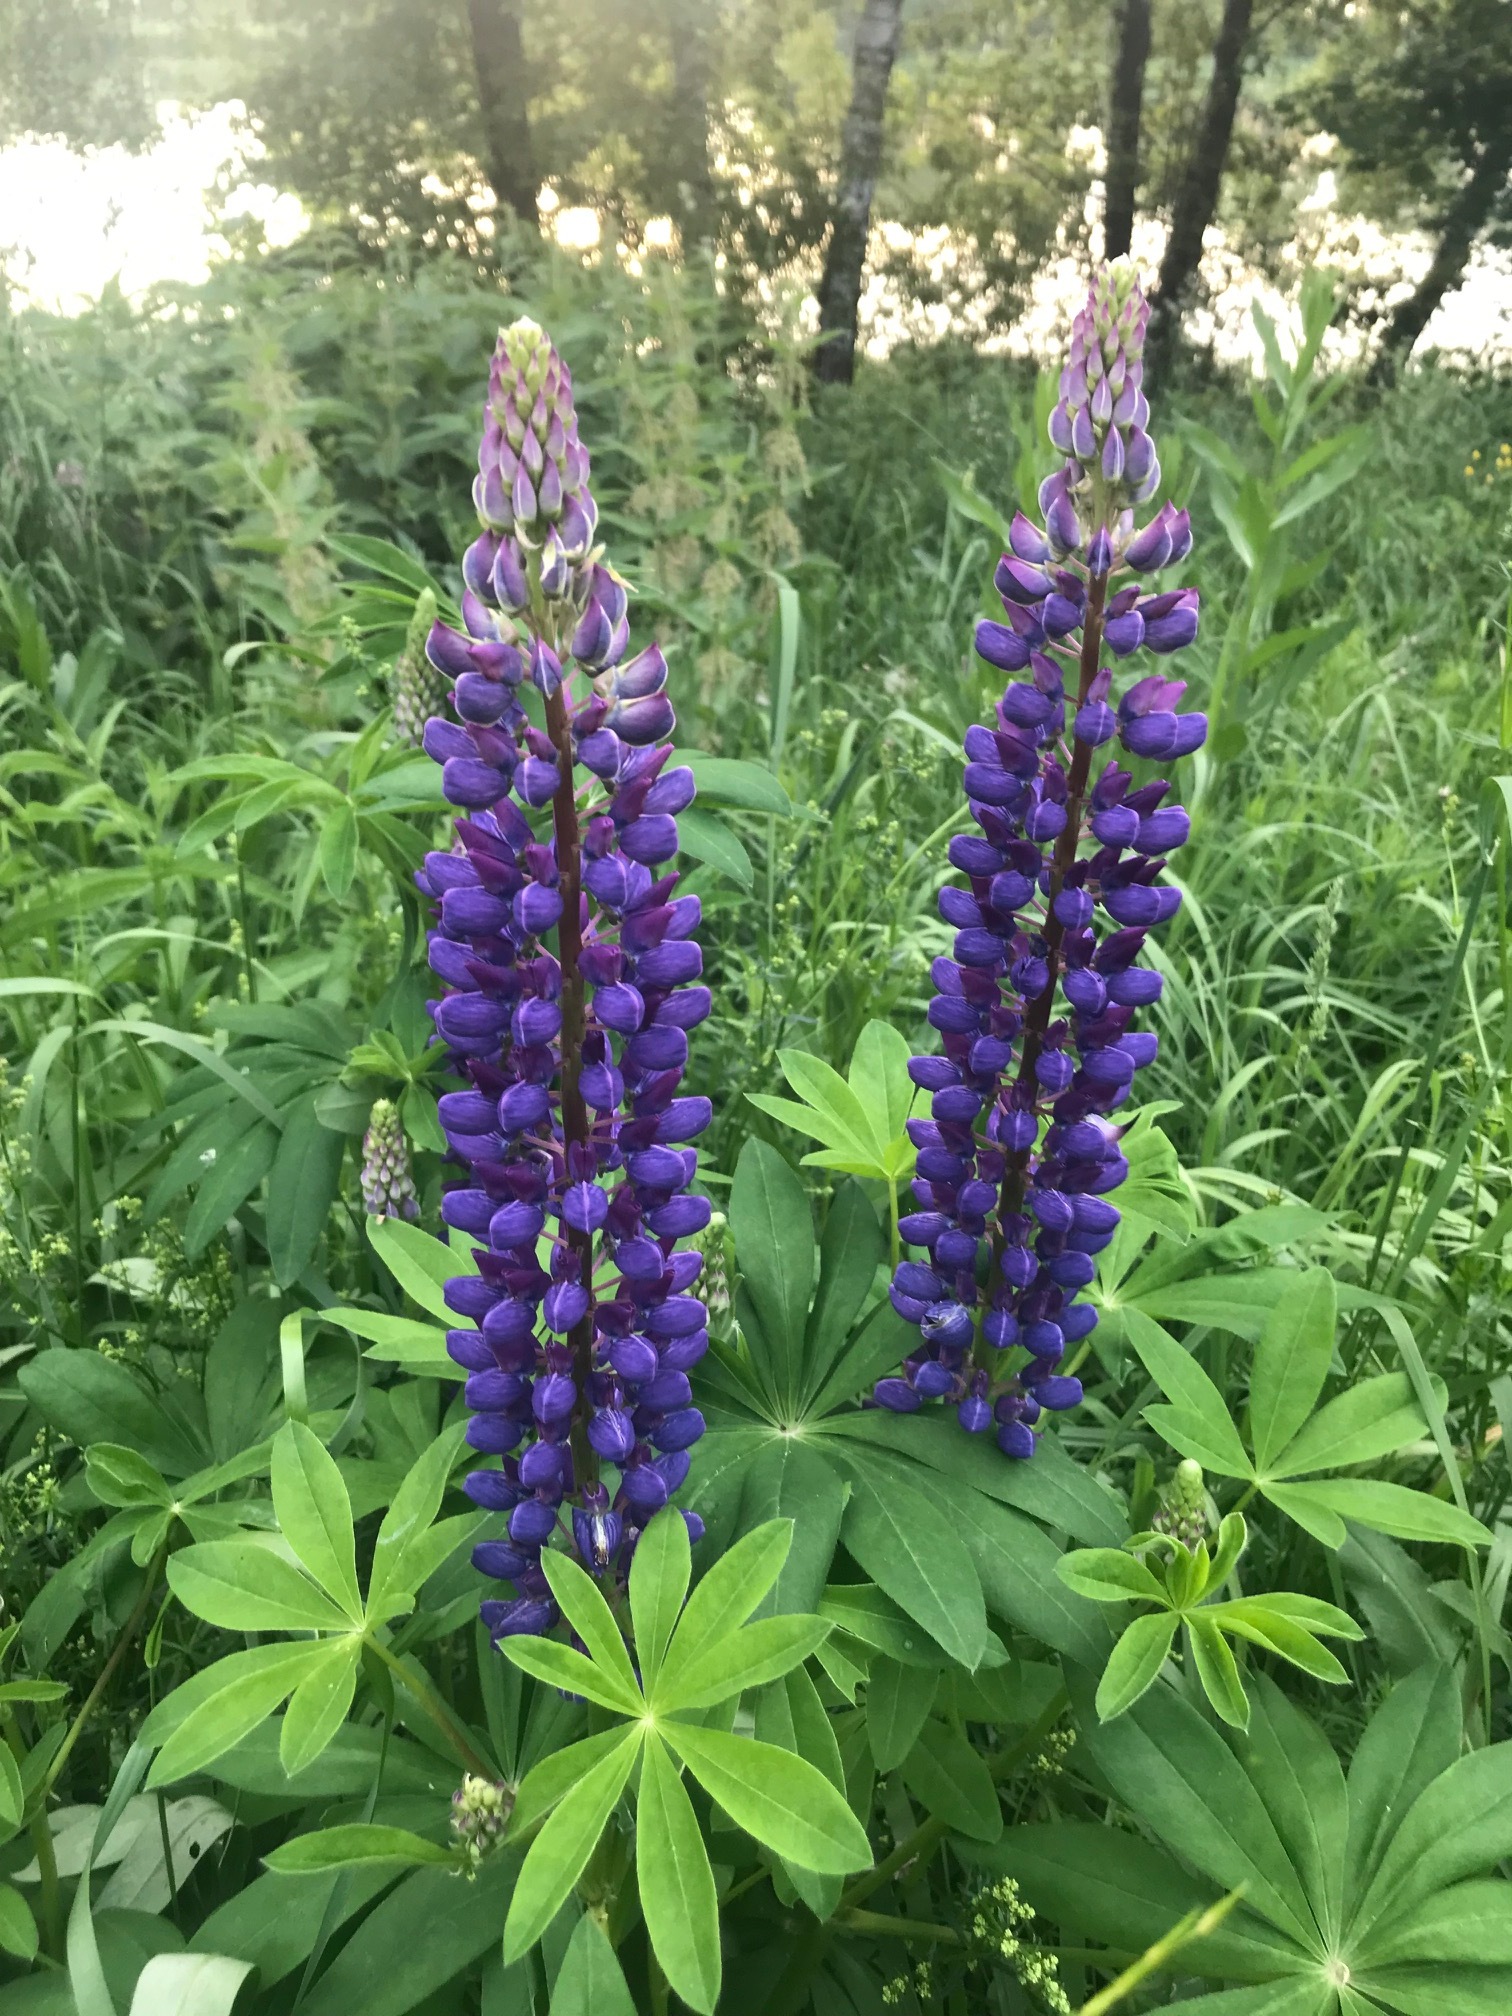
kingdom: Plantae
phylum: Tracheophyta
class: Magnoliopsida
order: Fabales
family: Fabaceae
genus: Lupinus
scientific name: Lupinus polyphyllus
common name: Garden lupin
